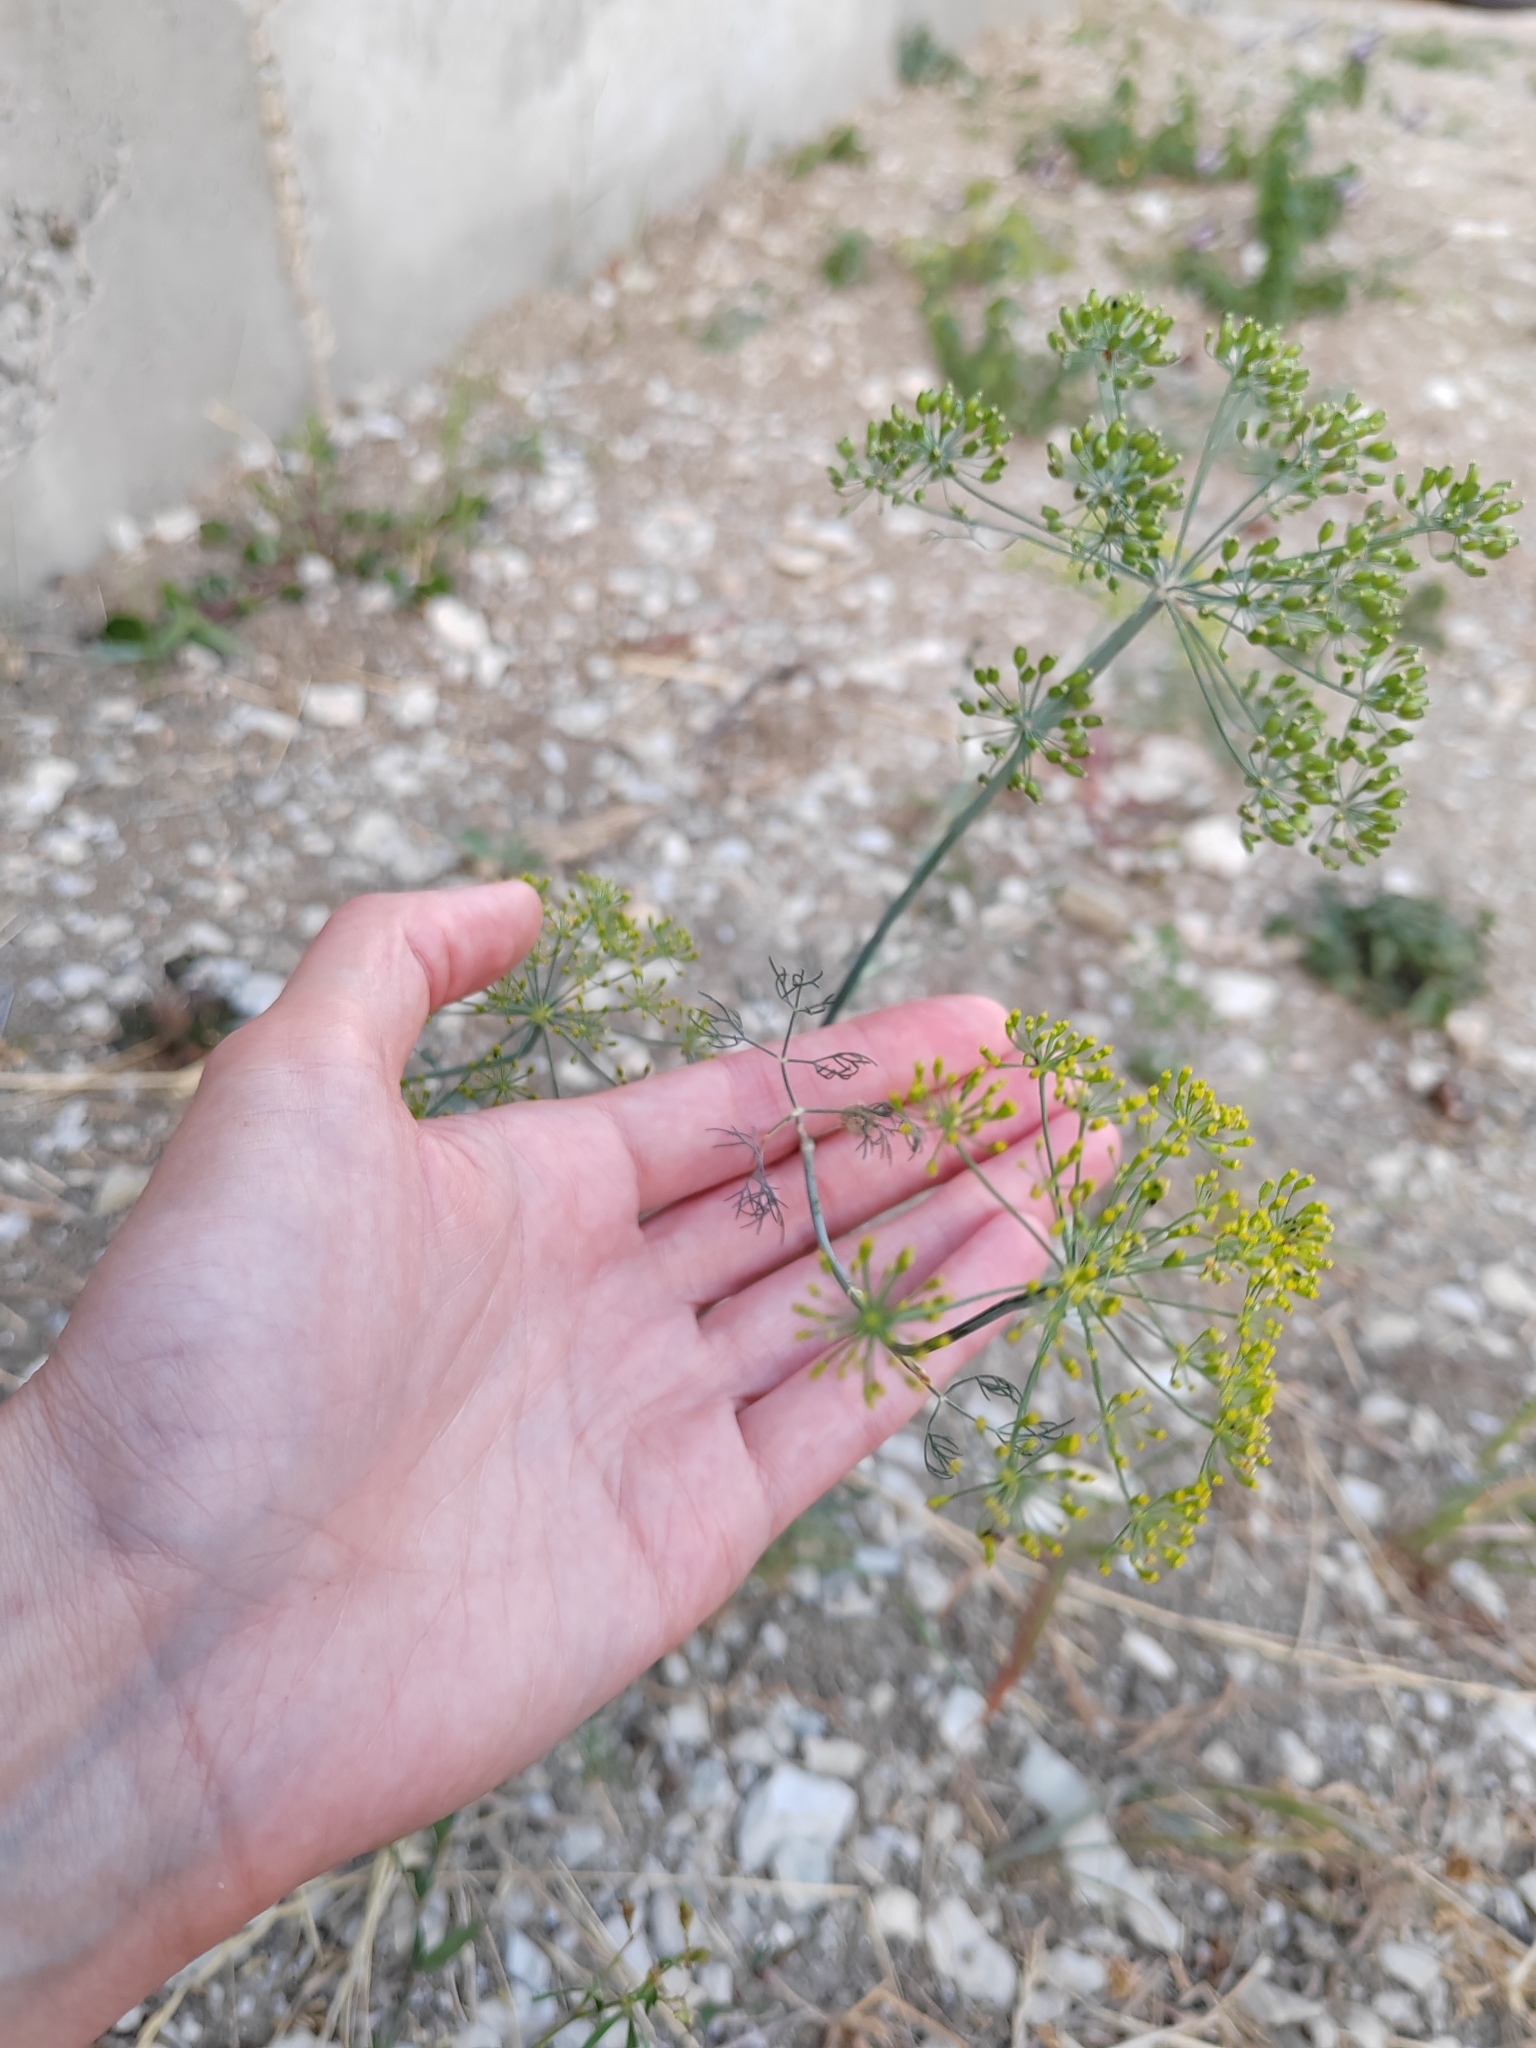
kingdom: Plantae
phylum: Tracheophyta
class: Magnoliopsida
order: Apiales
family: Apiaceae
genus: Anethum
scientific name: Anethum graveolens
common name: Dill
